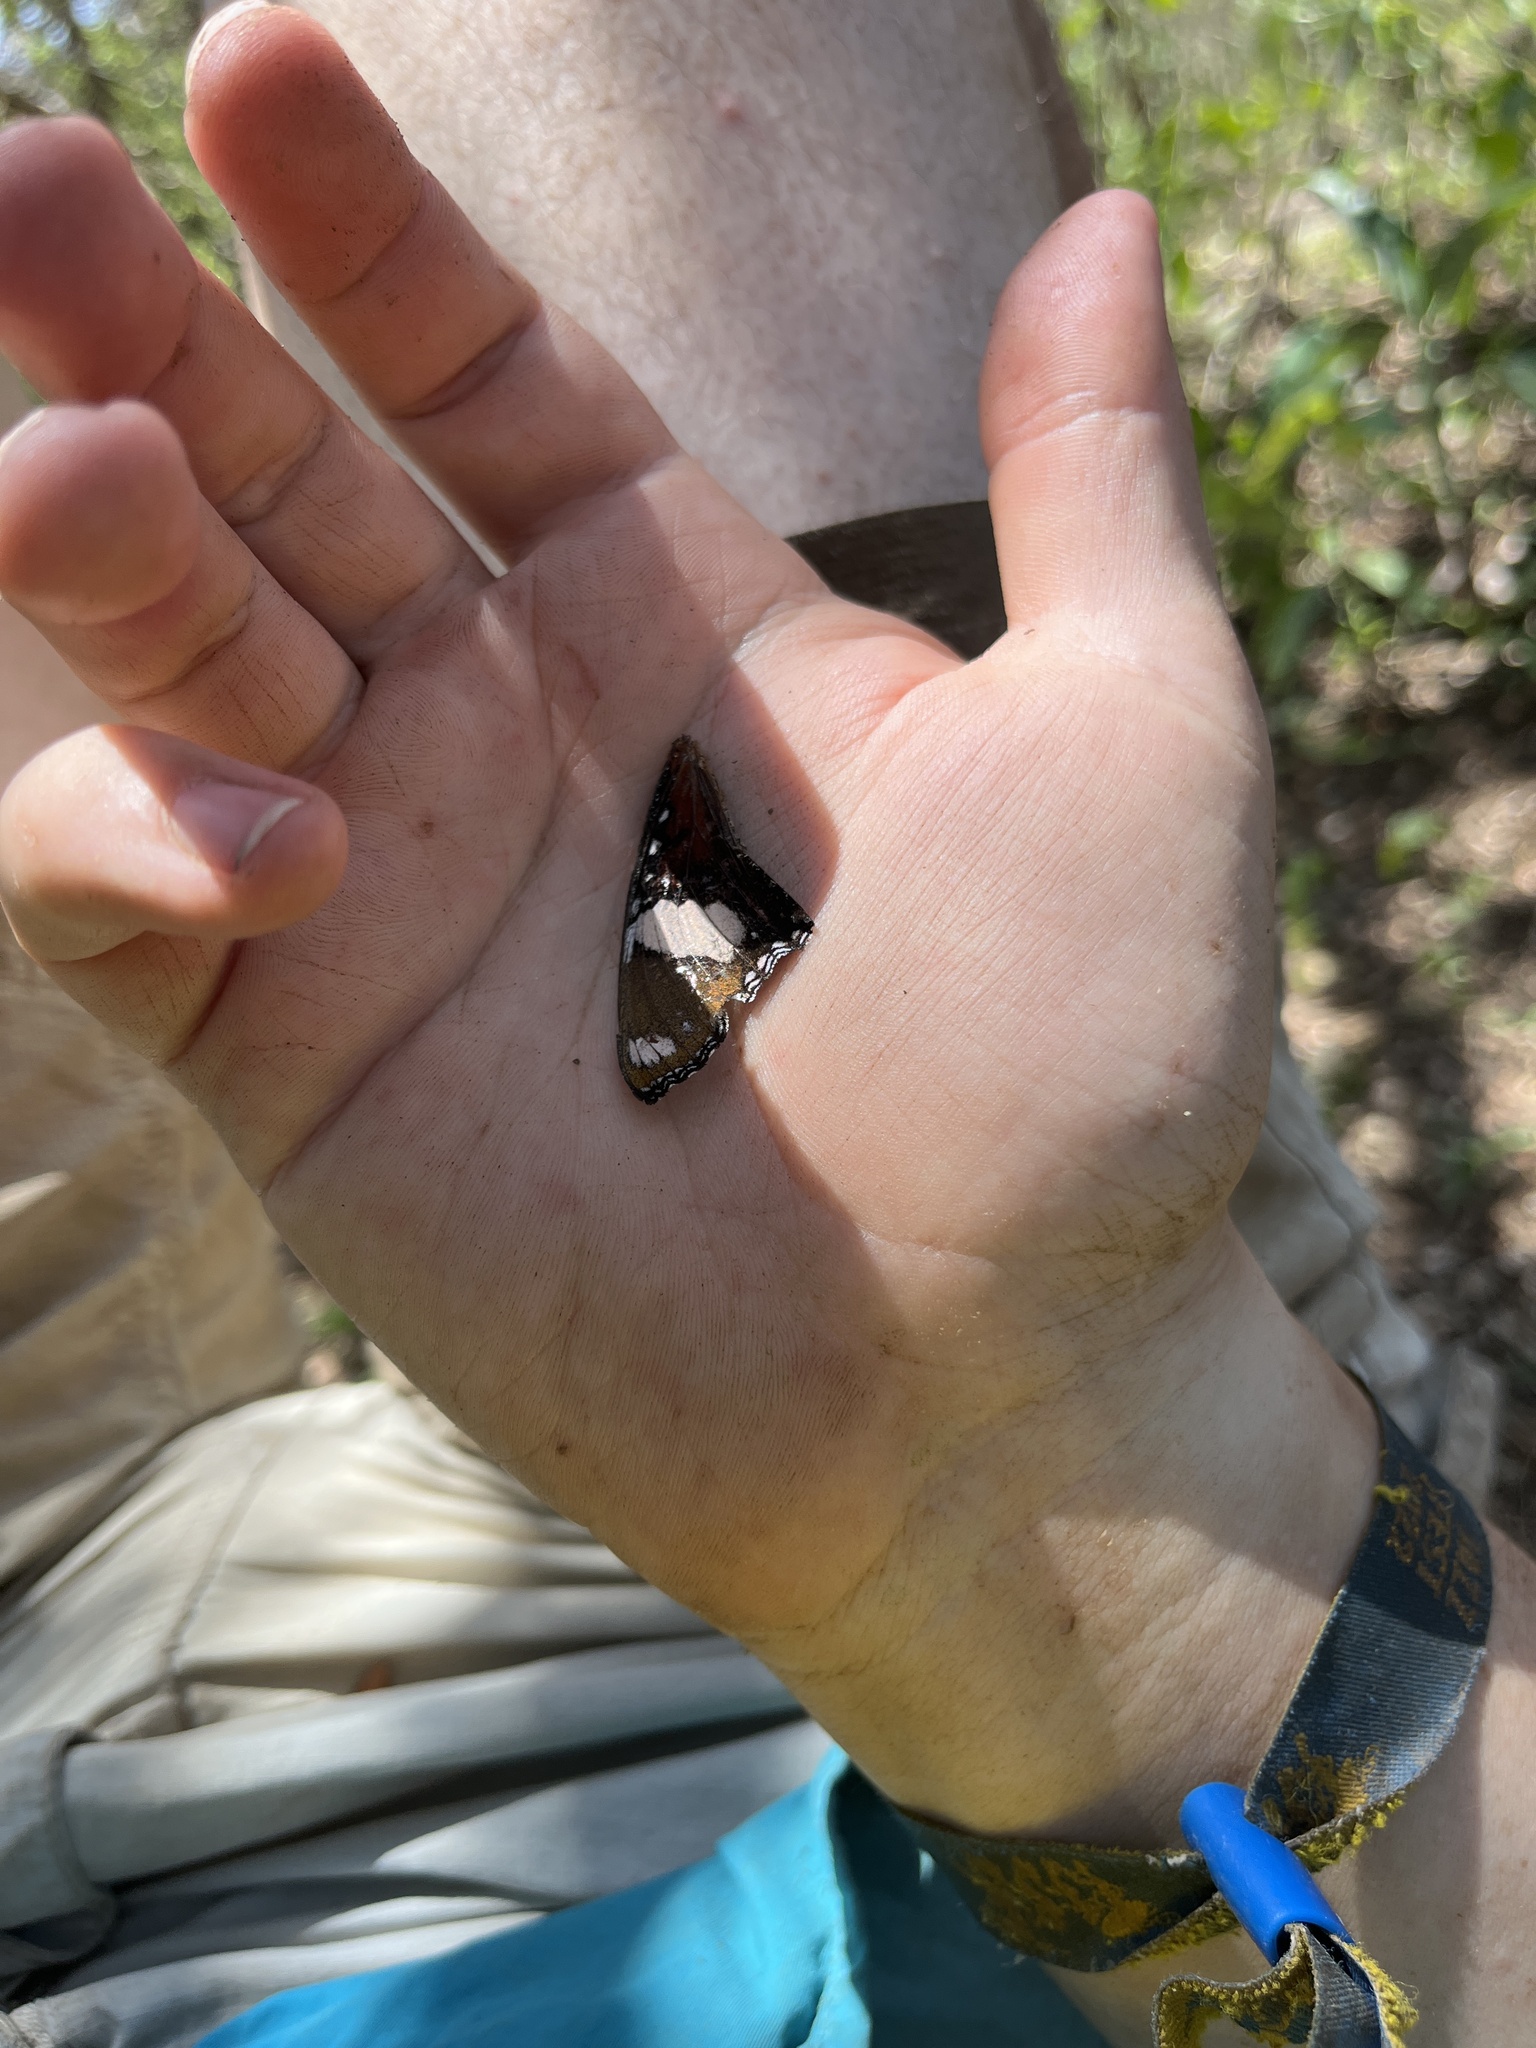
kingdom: Animalia
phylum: Arthropoda
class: Insecta
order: Lepidoptera
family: Nymphalidae
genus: Hypolimnas
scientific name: Hypolimnas misippus
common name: False plain tiger
